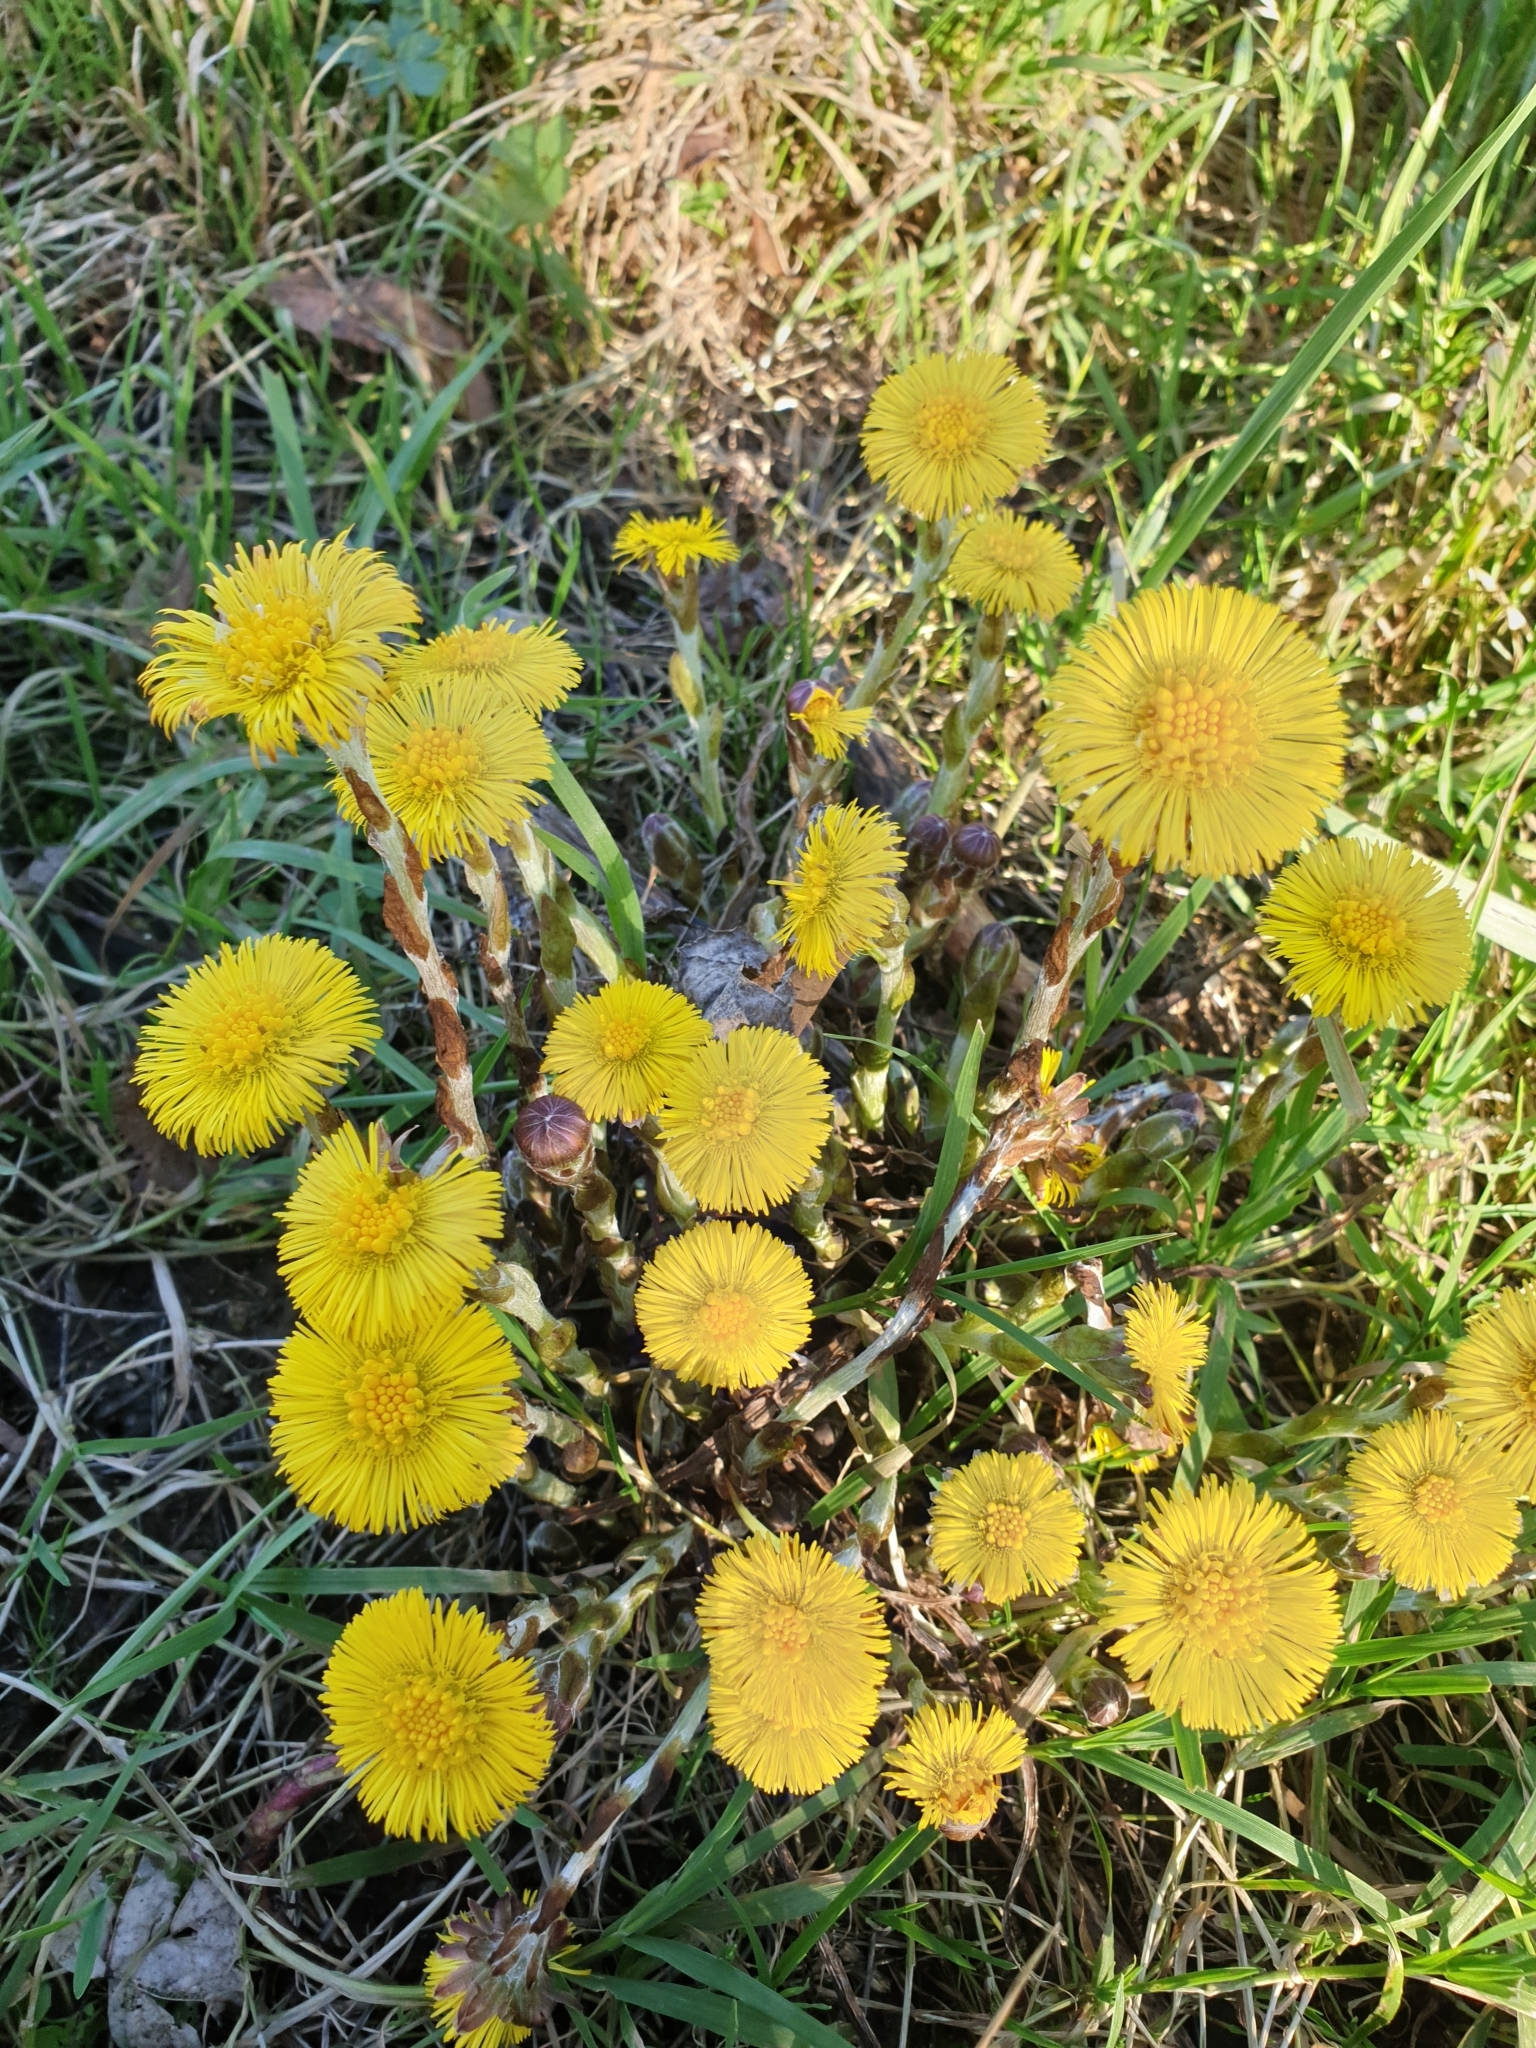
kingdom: Plantae
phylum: Tracheophyta
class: Magnoliopsida
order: Asterales
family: Asteraceae
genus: Tussilago
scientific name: Tussilago farfara
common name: Coltsfoot
